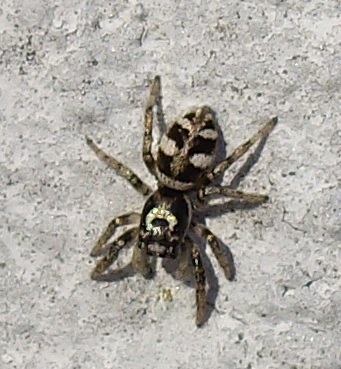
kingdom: Animalia
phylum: Arthropoda
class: Arachnida
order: Araneae
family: Salticidae
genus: Salticus
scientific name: Salticus scenicus
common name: Zebra jumper
